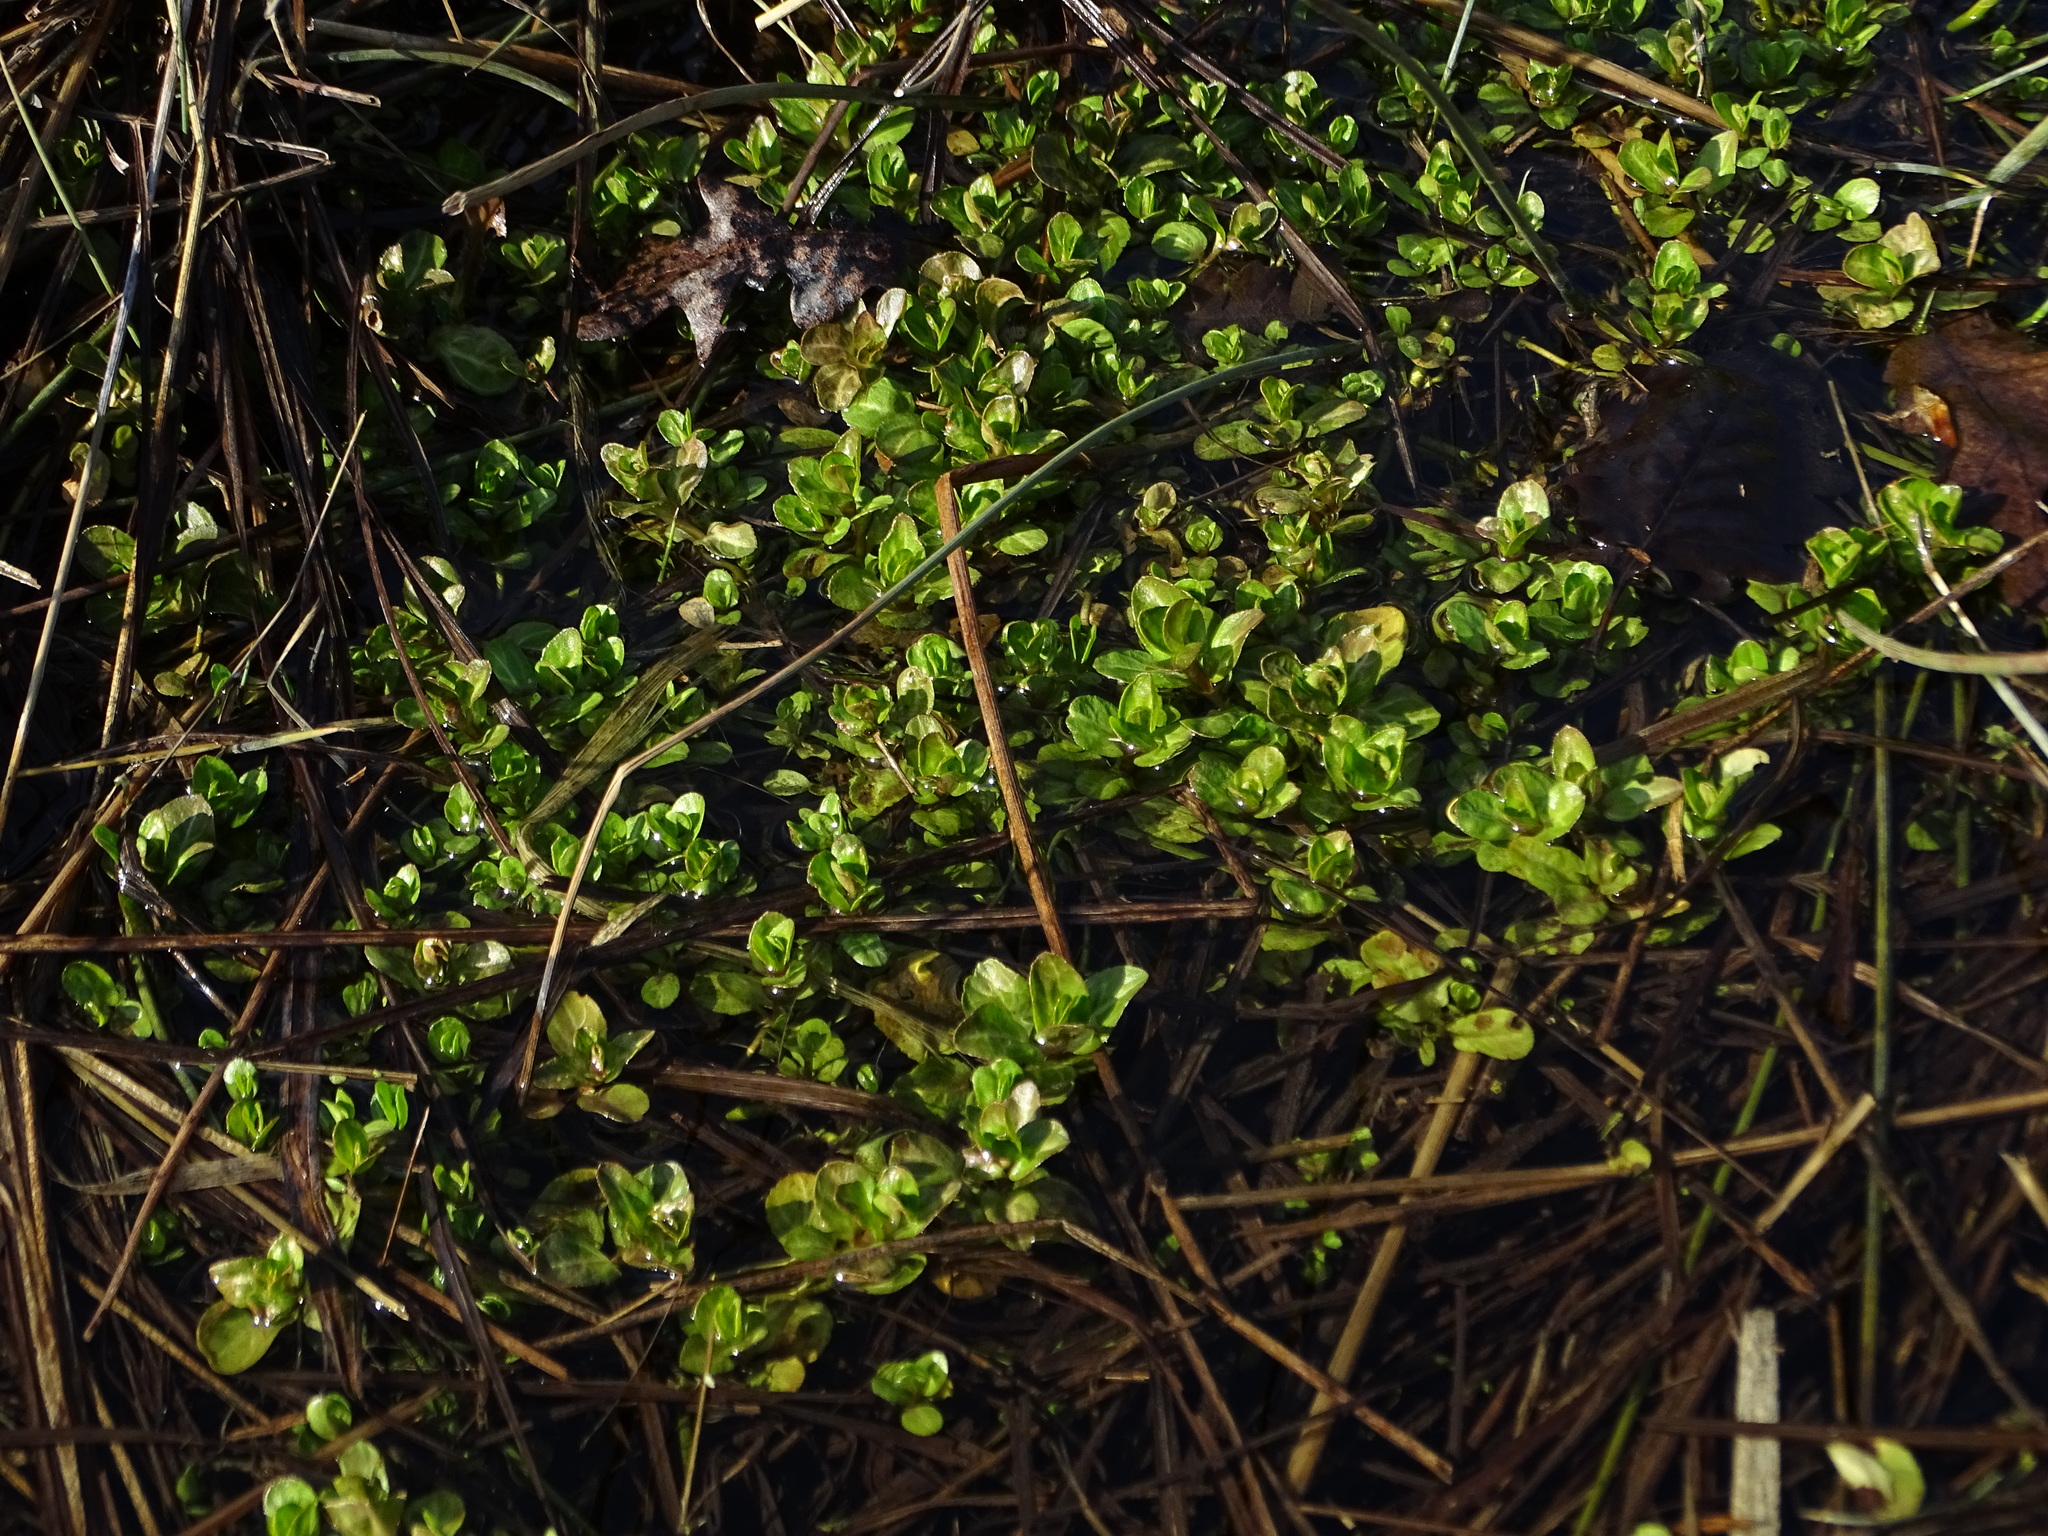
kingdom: Plantae
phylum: Tracheophyta
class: Magnoliopsida
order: Lamiales
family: Plantaginaceae
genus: Veronica
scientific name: Veronica beccabunga
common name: Brooklime
